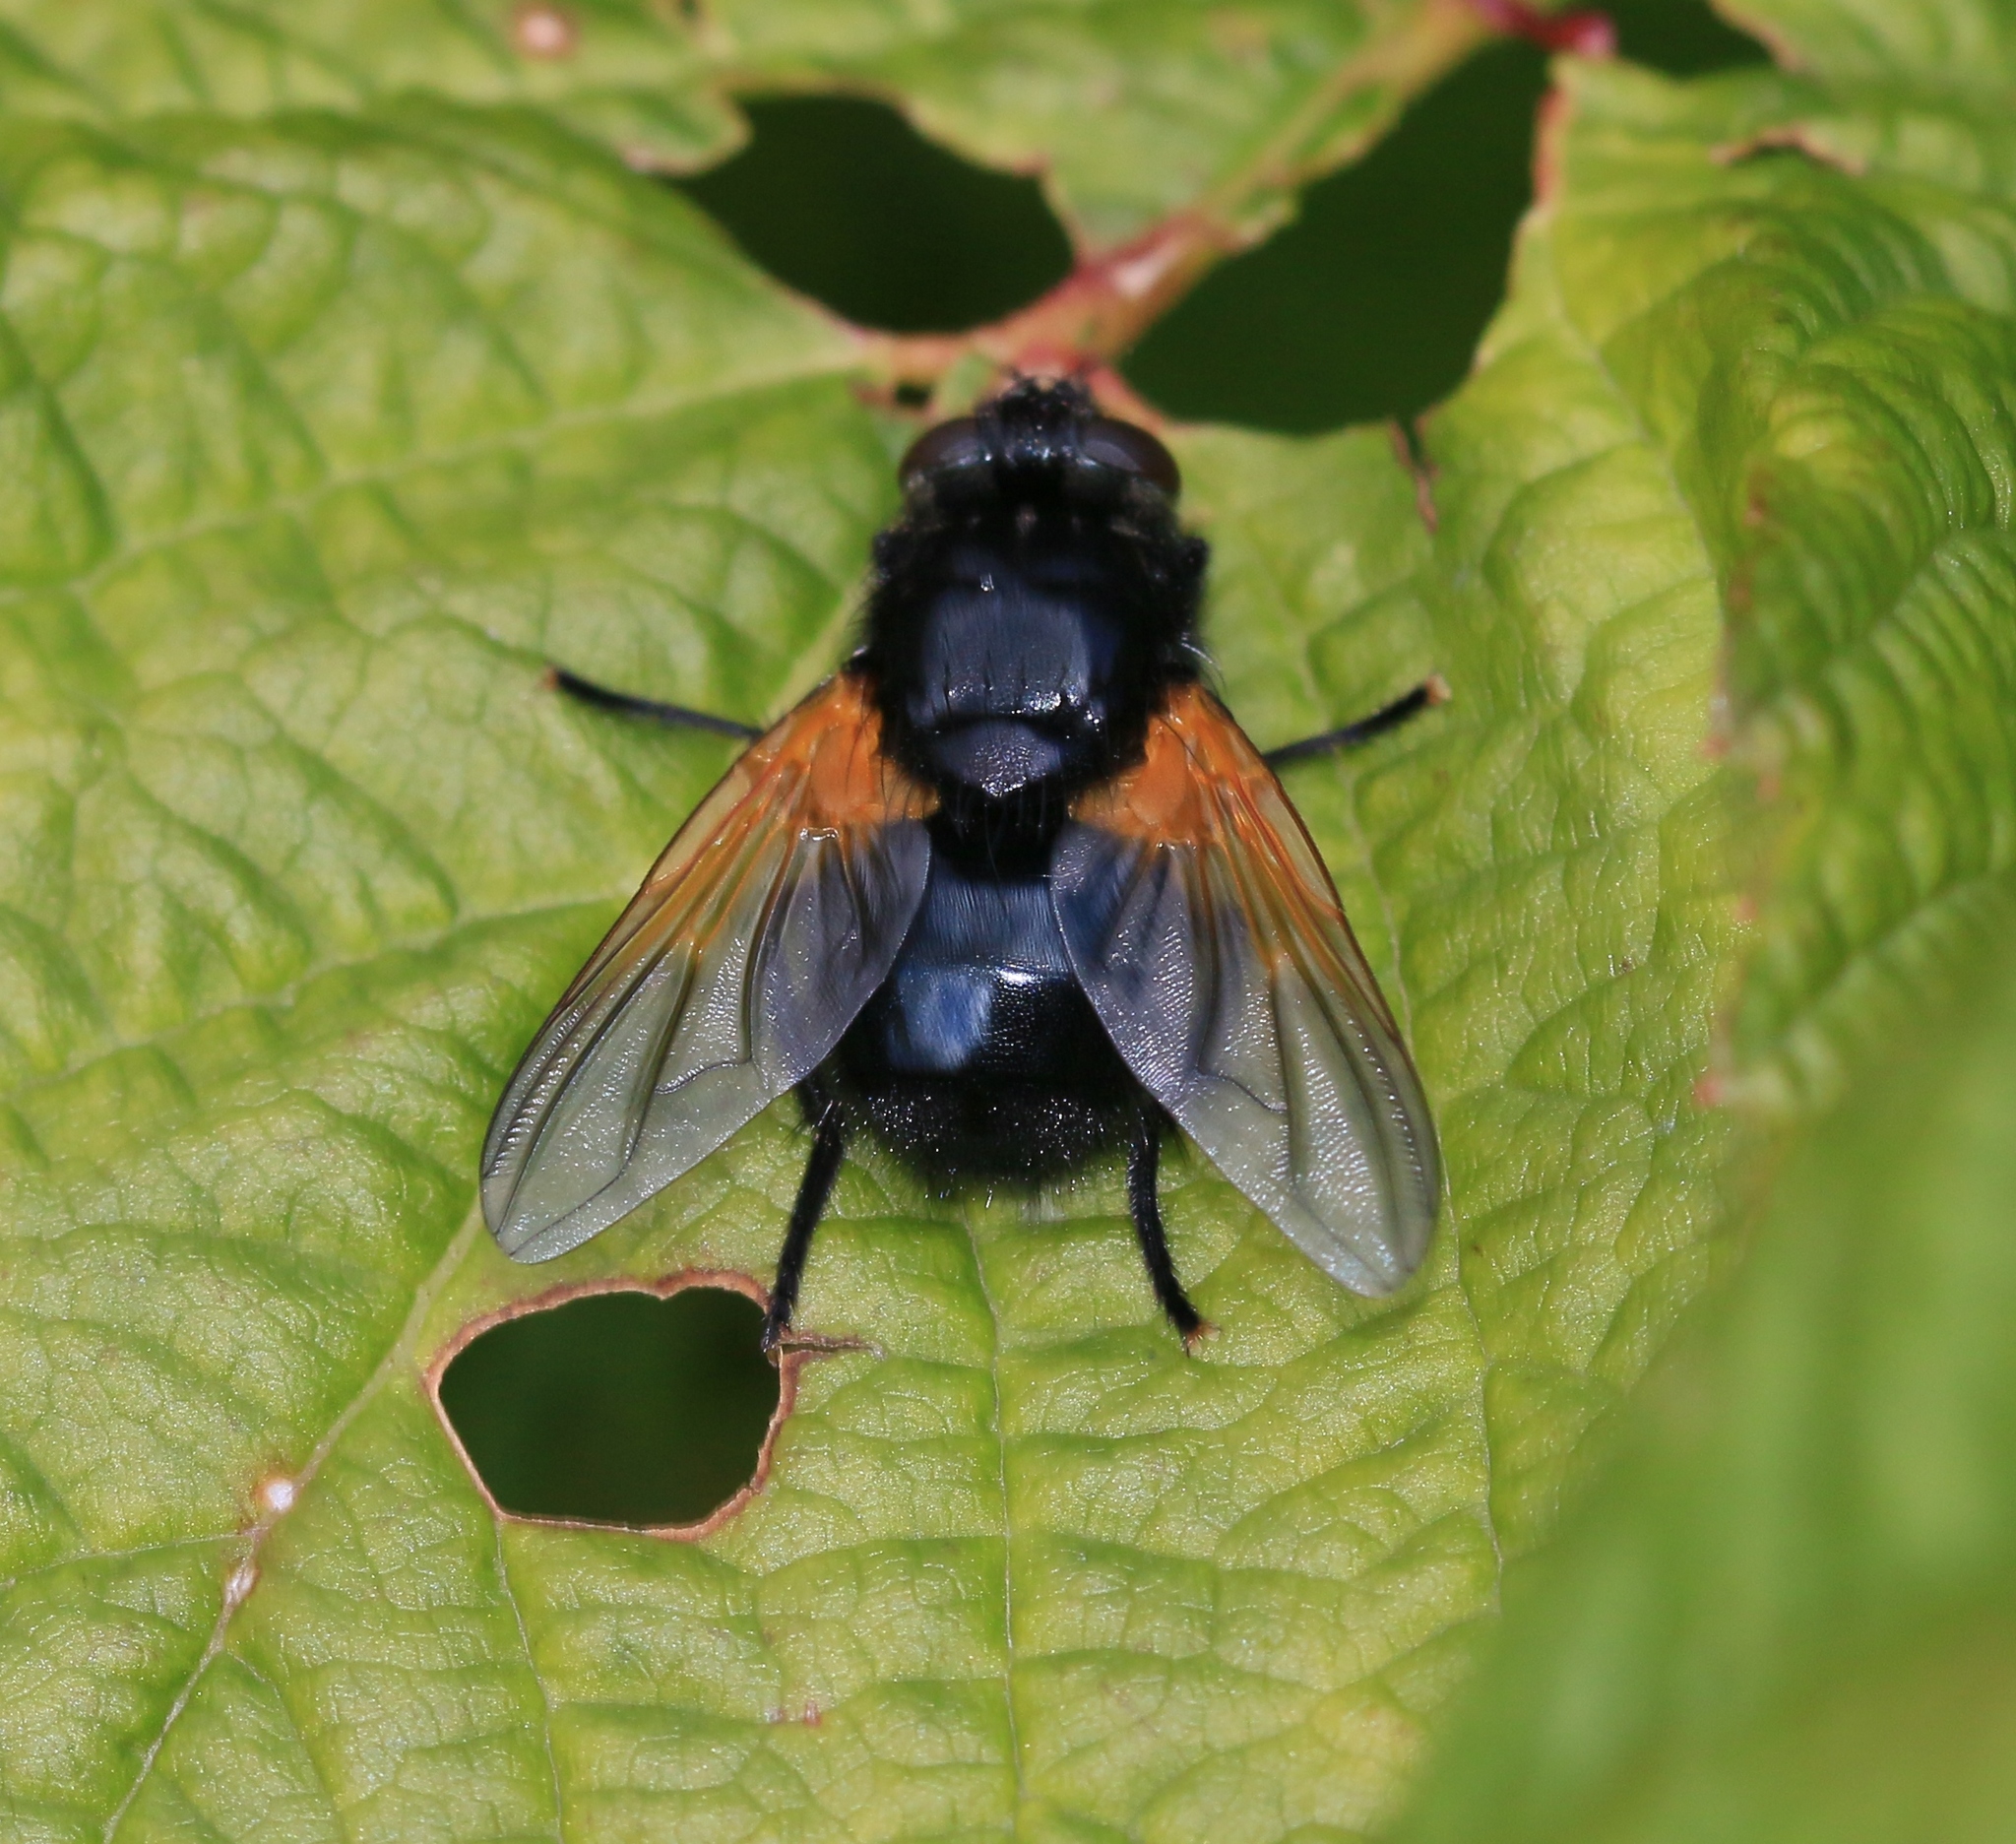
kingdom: Animalia
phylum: Arthropoda
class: Insecta
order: Diptera
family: Muscidae
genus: Mesembrina
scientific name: Mesembrina meridiana
